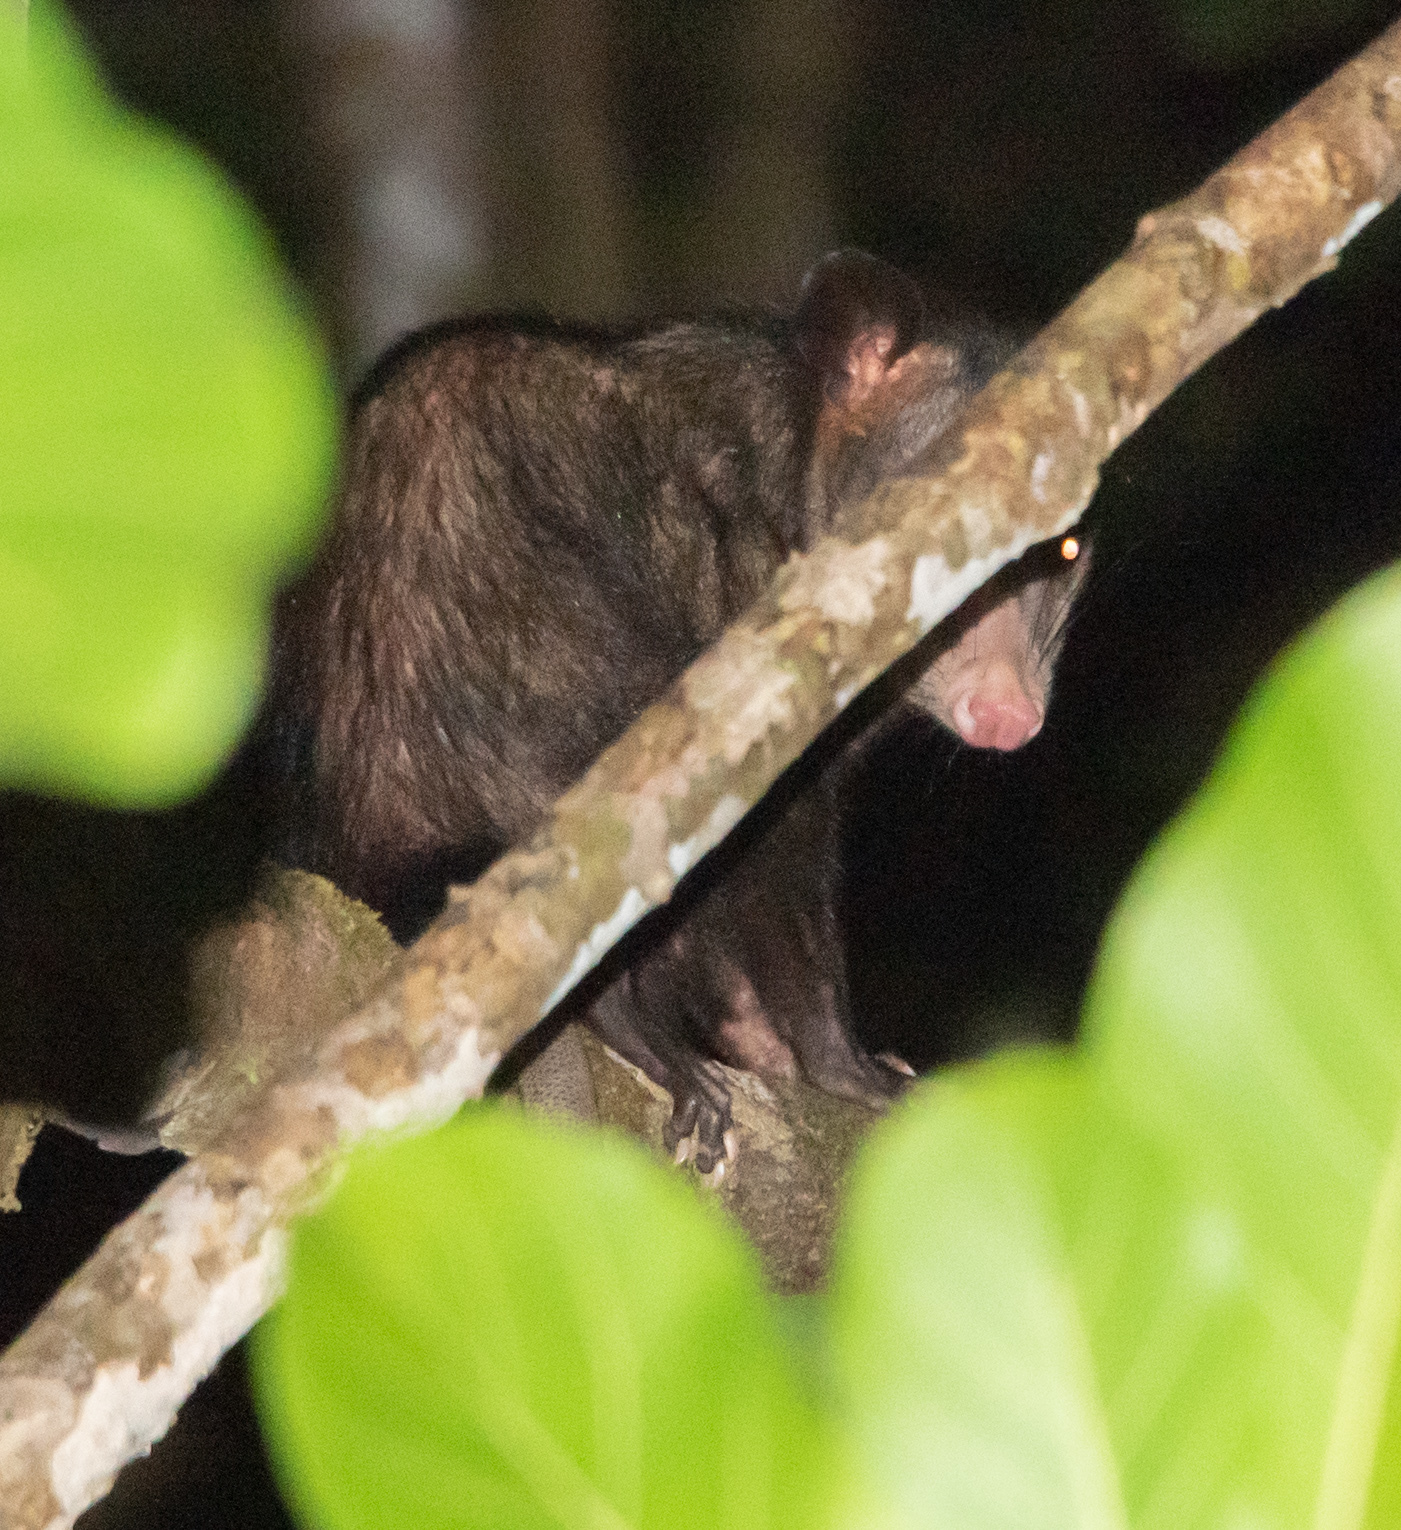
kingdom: Animalia
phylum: Chordata
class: Mammalia
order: Didelphimorphia
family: Didelphidae
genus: Didelphis
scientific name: Didelphis marsupialis
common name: Common opossum
